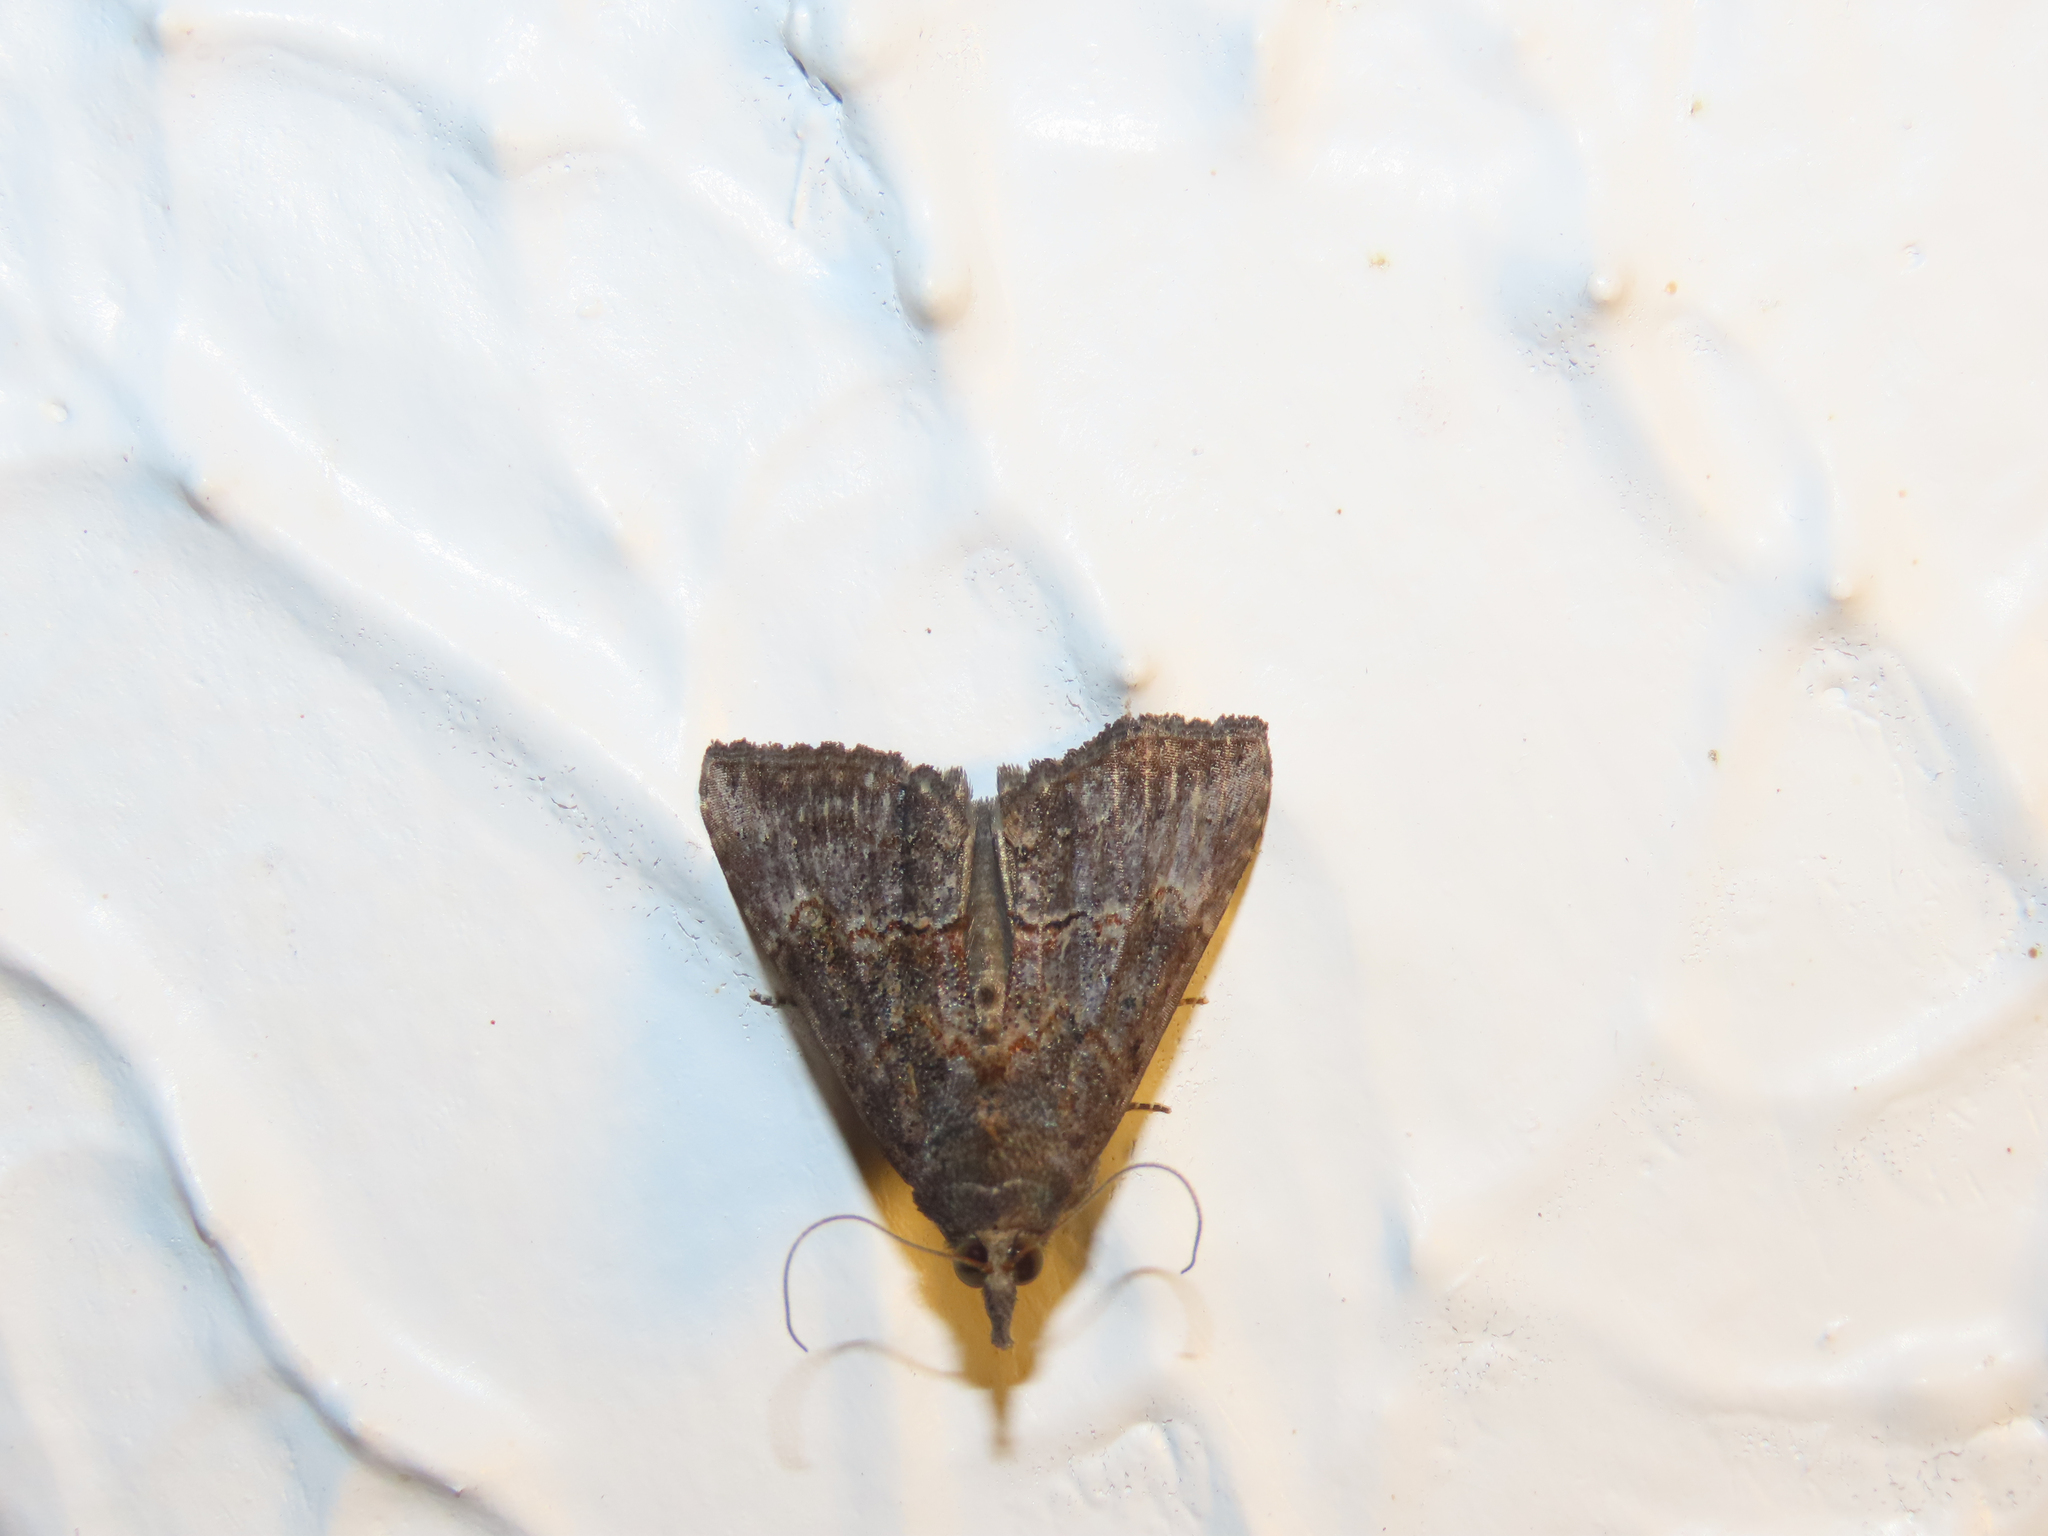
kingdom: Animalia
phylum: Arthropoda
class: Insecta
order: Lepidoptera
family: Erebidae
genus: Hypena
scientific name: Hypena scabra
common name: Green cloverworm
